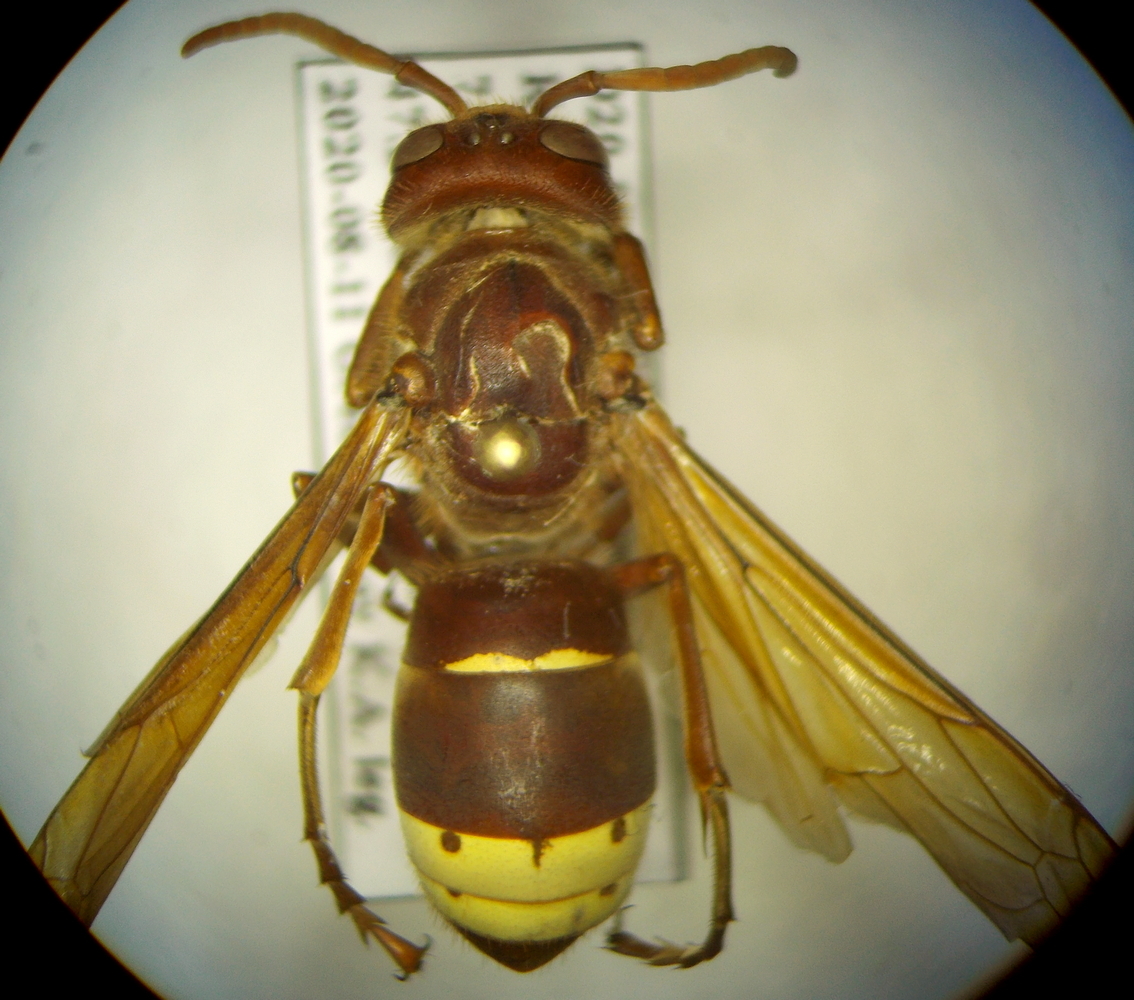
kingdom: Animalia
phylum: Arthropoda
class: Insecta
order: Hymenoptera
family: Vespidae
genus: Vespa
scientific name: Vespa orientalis
